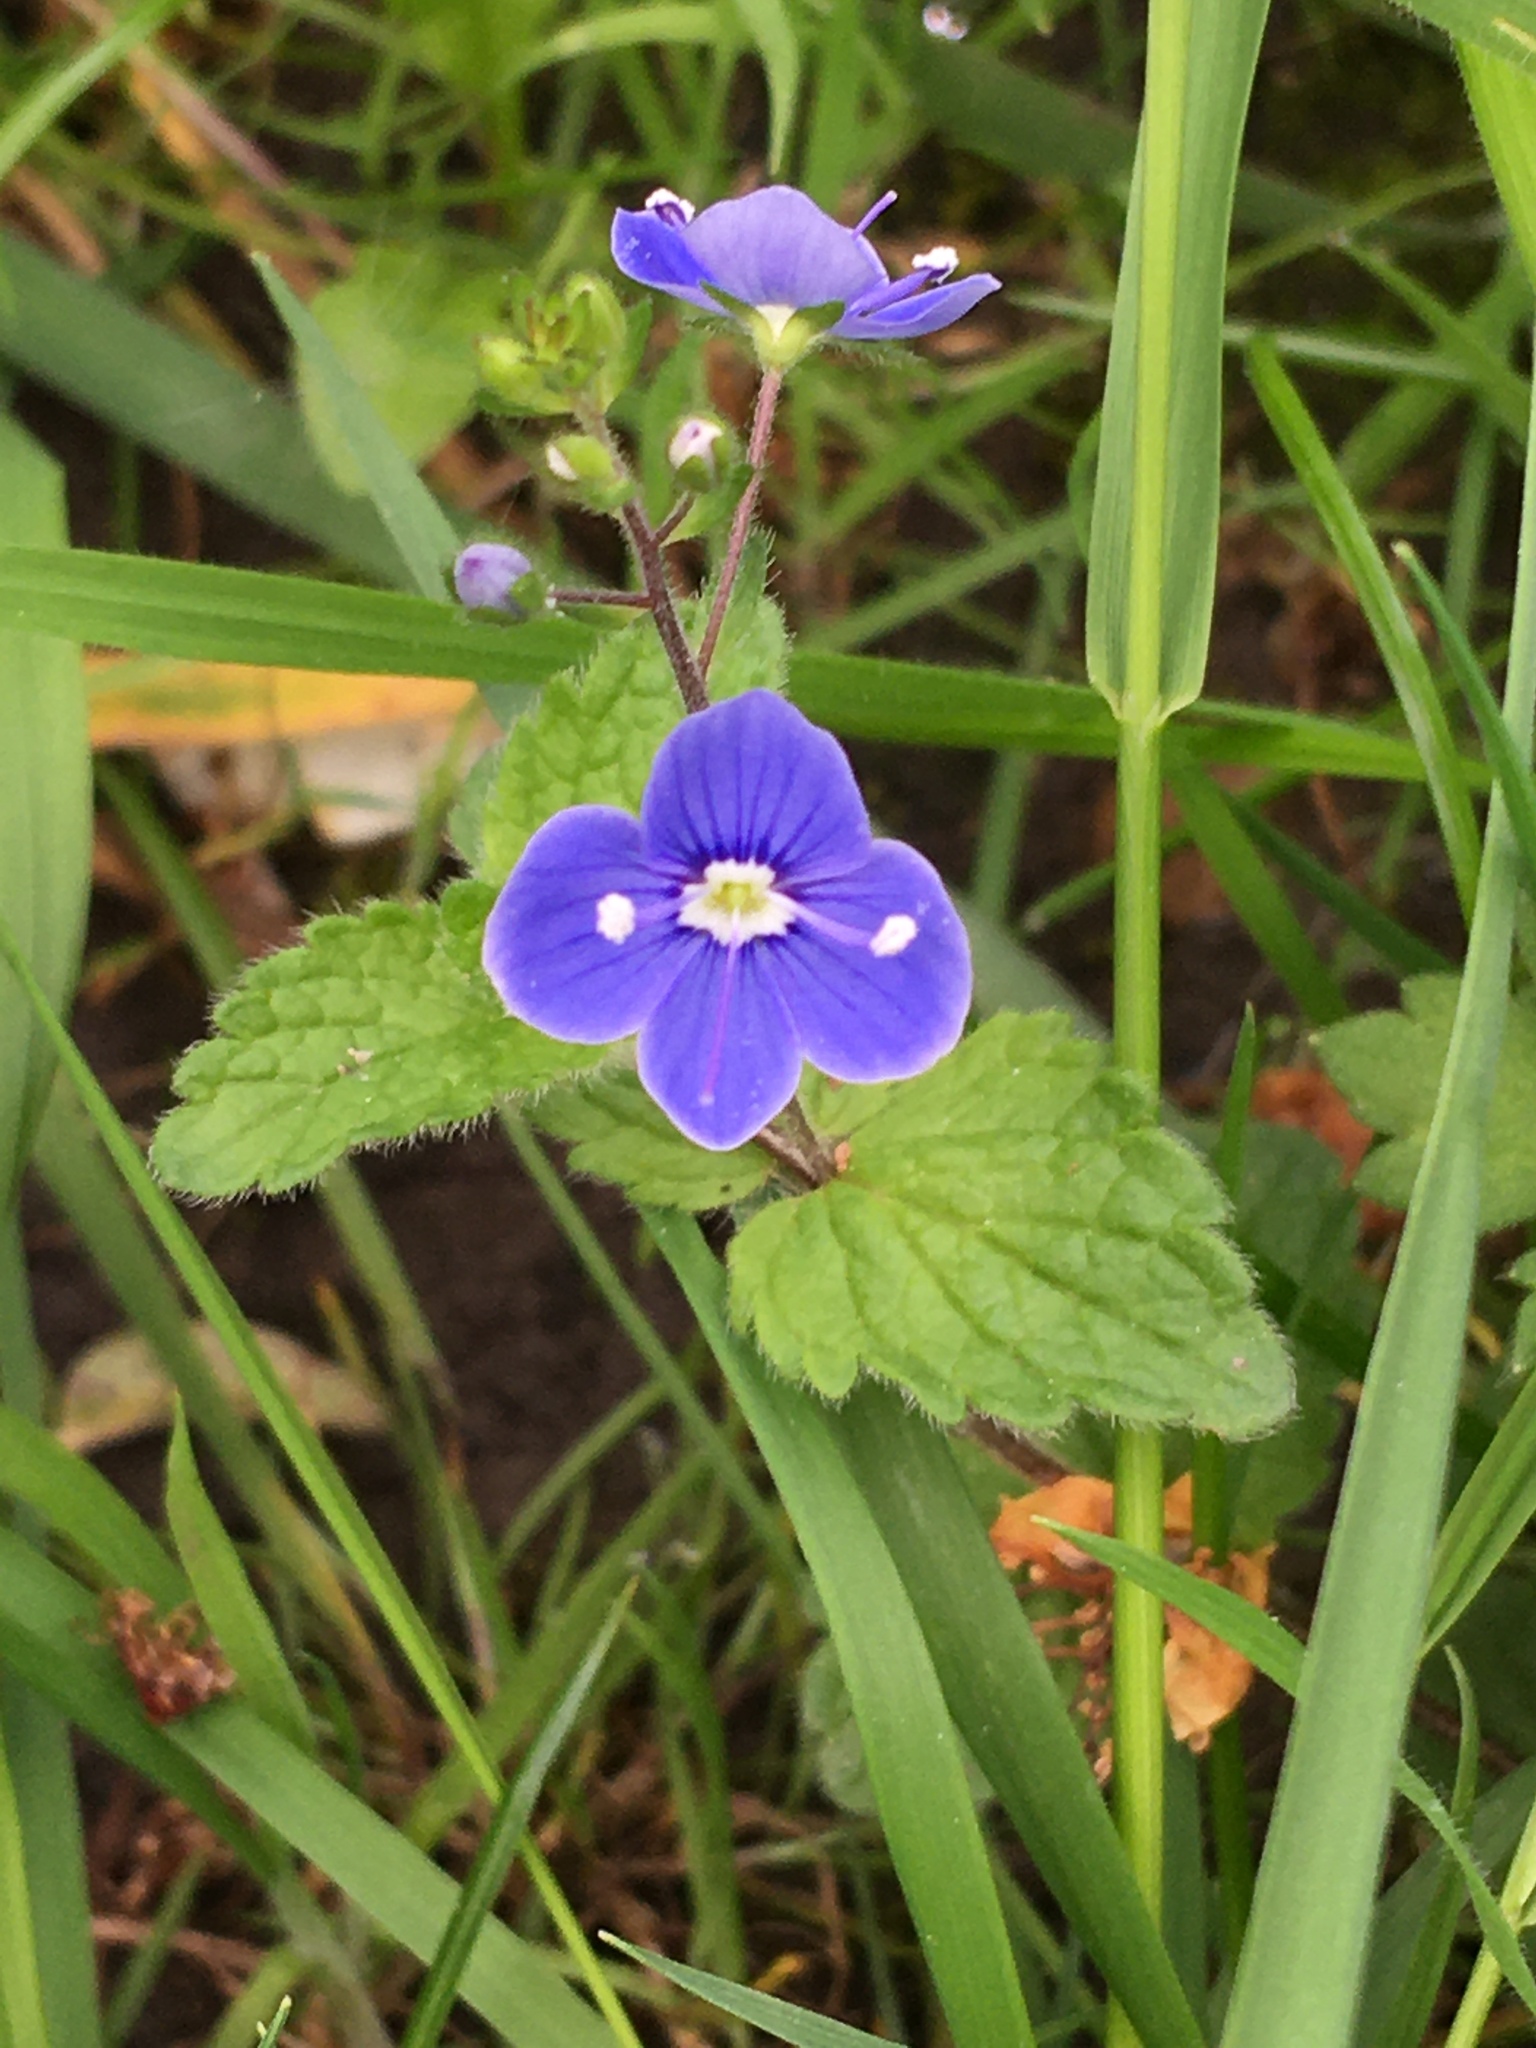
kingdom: Plantae
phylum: Tracheophyta
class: Magnoliopsida
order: Lamiales
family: Plantaginaceae
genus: Veronica
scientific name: Veronica chamaedrys
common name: Germander speedwell
